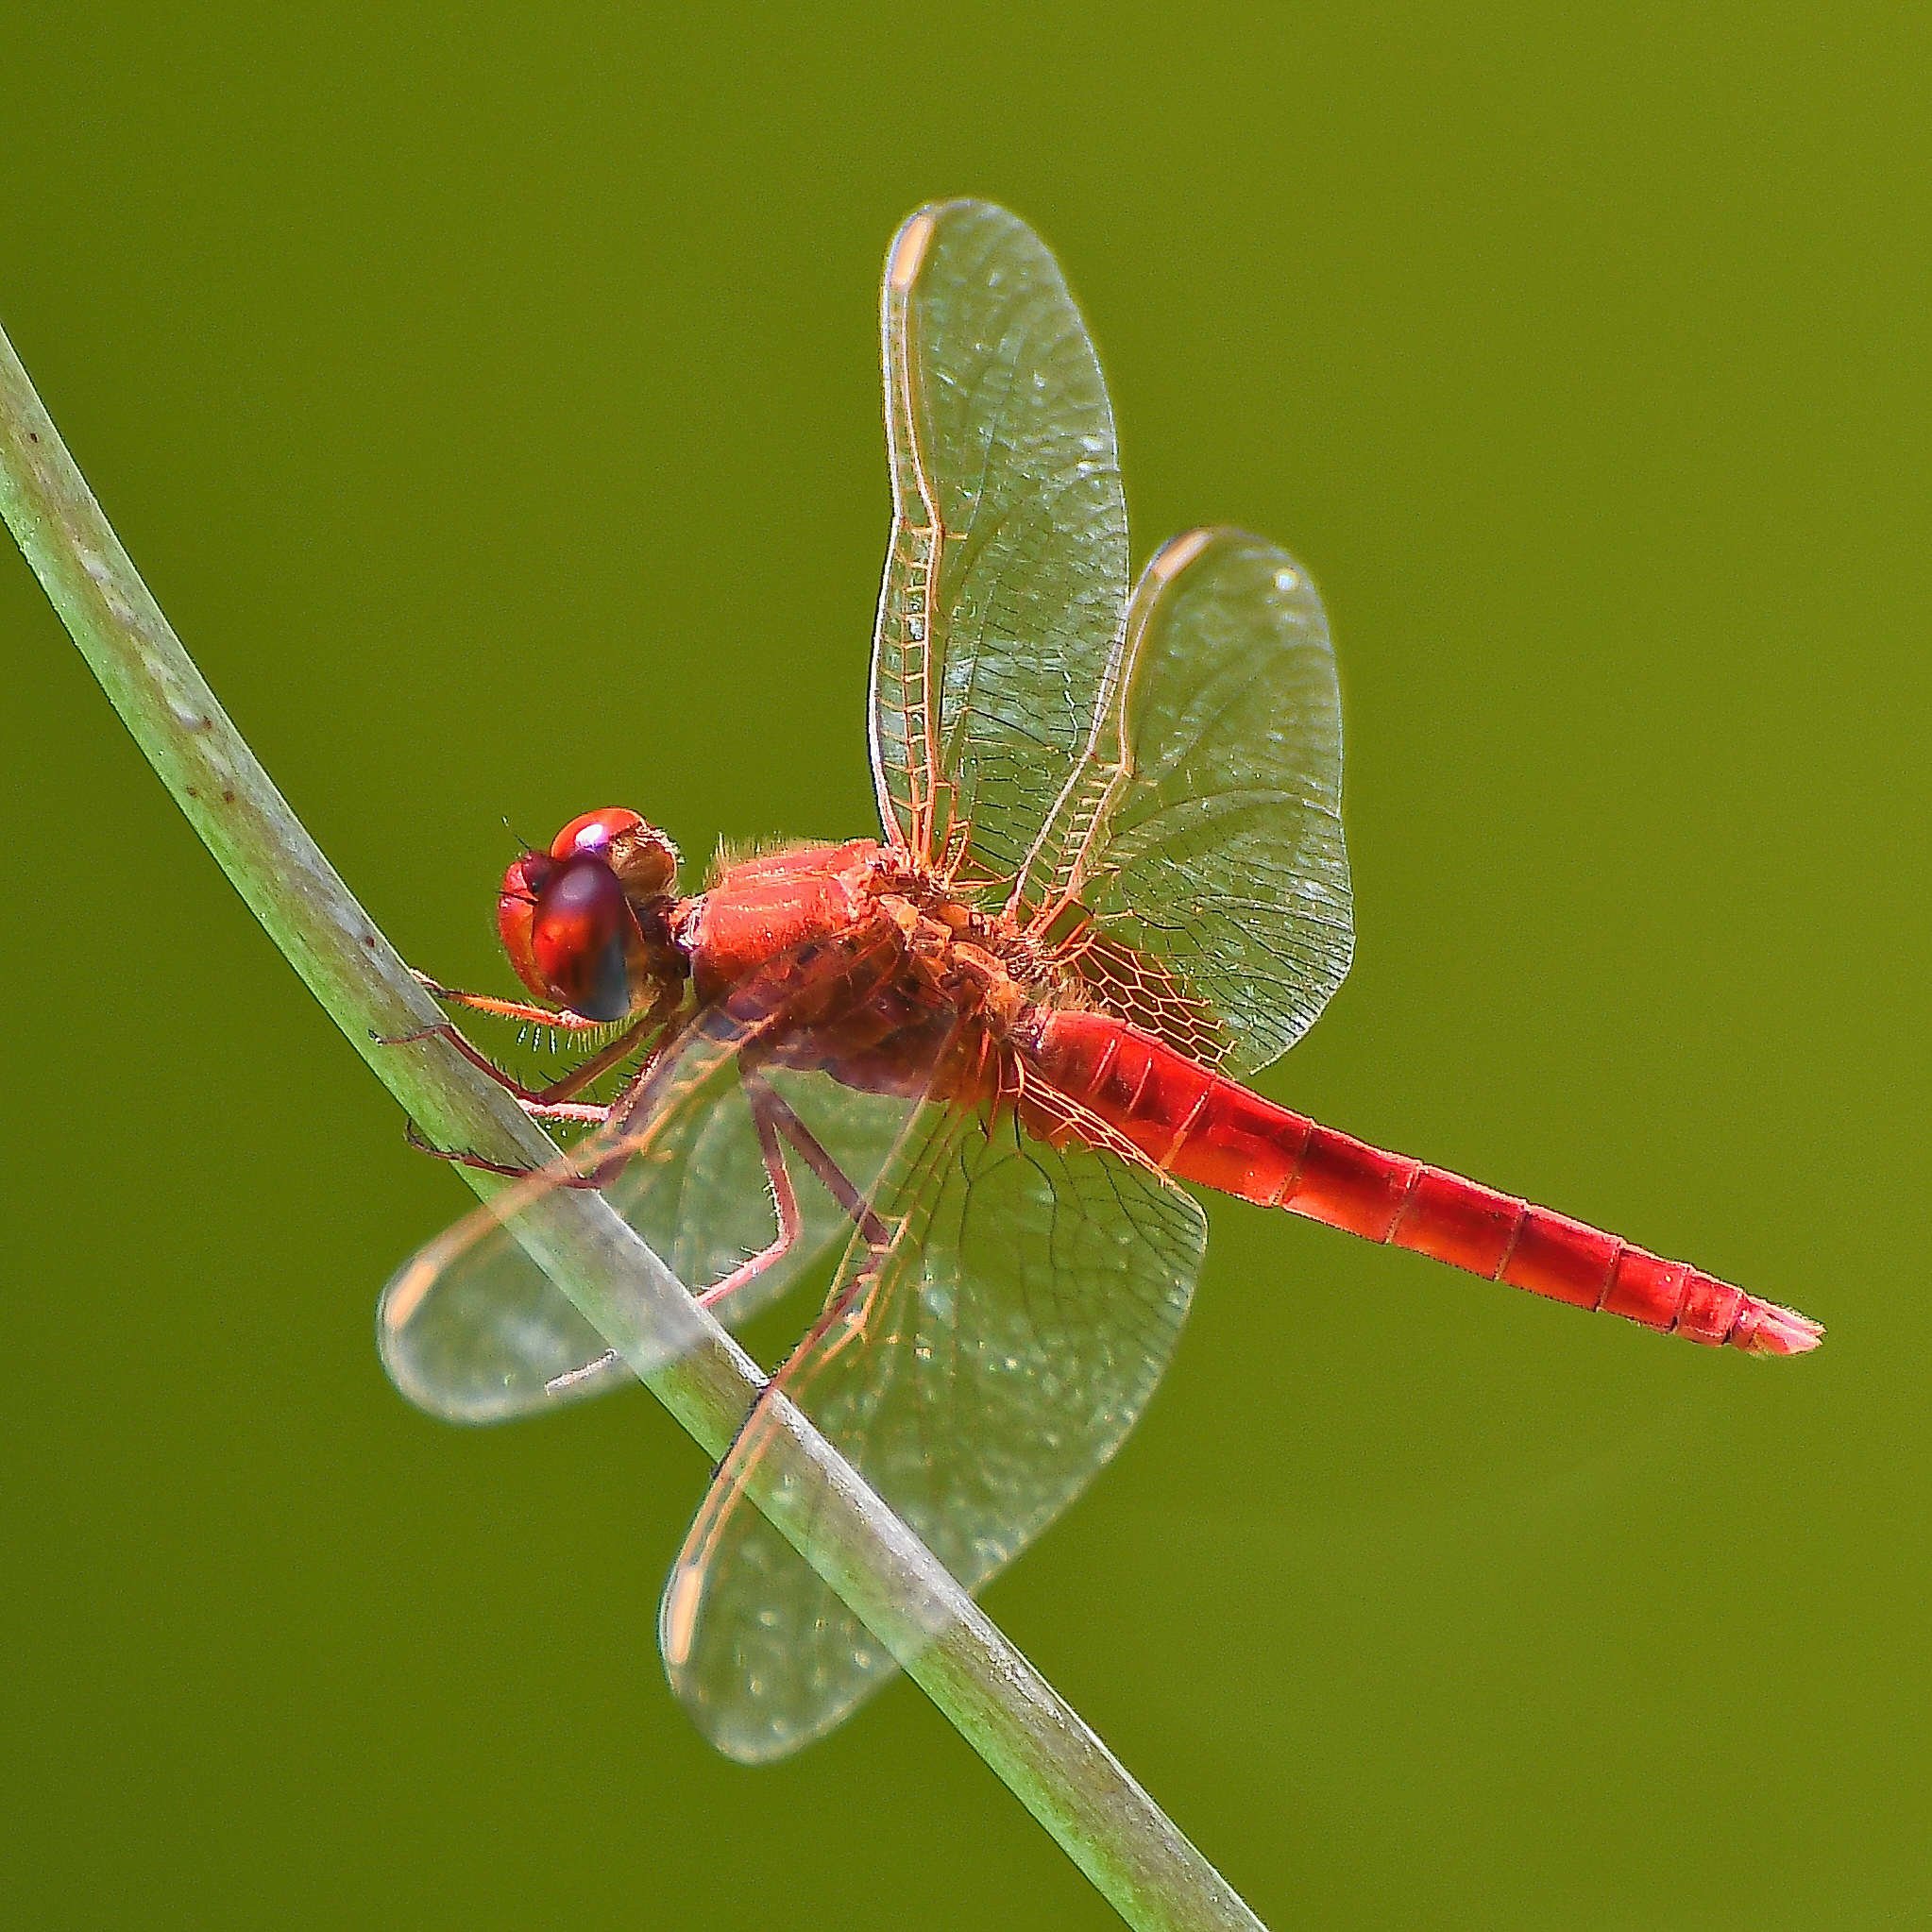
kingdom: Animalia
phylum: Arthropoda
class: Insecta
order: Odonata
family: Libellulidae
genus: Crocothemis
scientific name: Crocothemis erythraea
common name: Scarlet dragonfly
